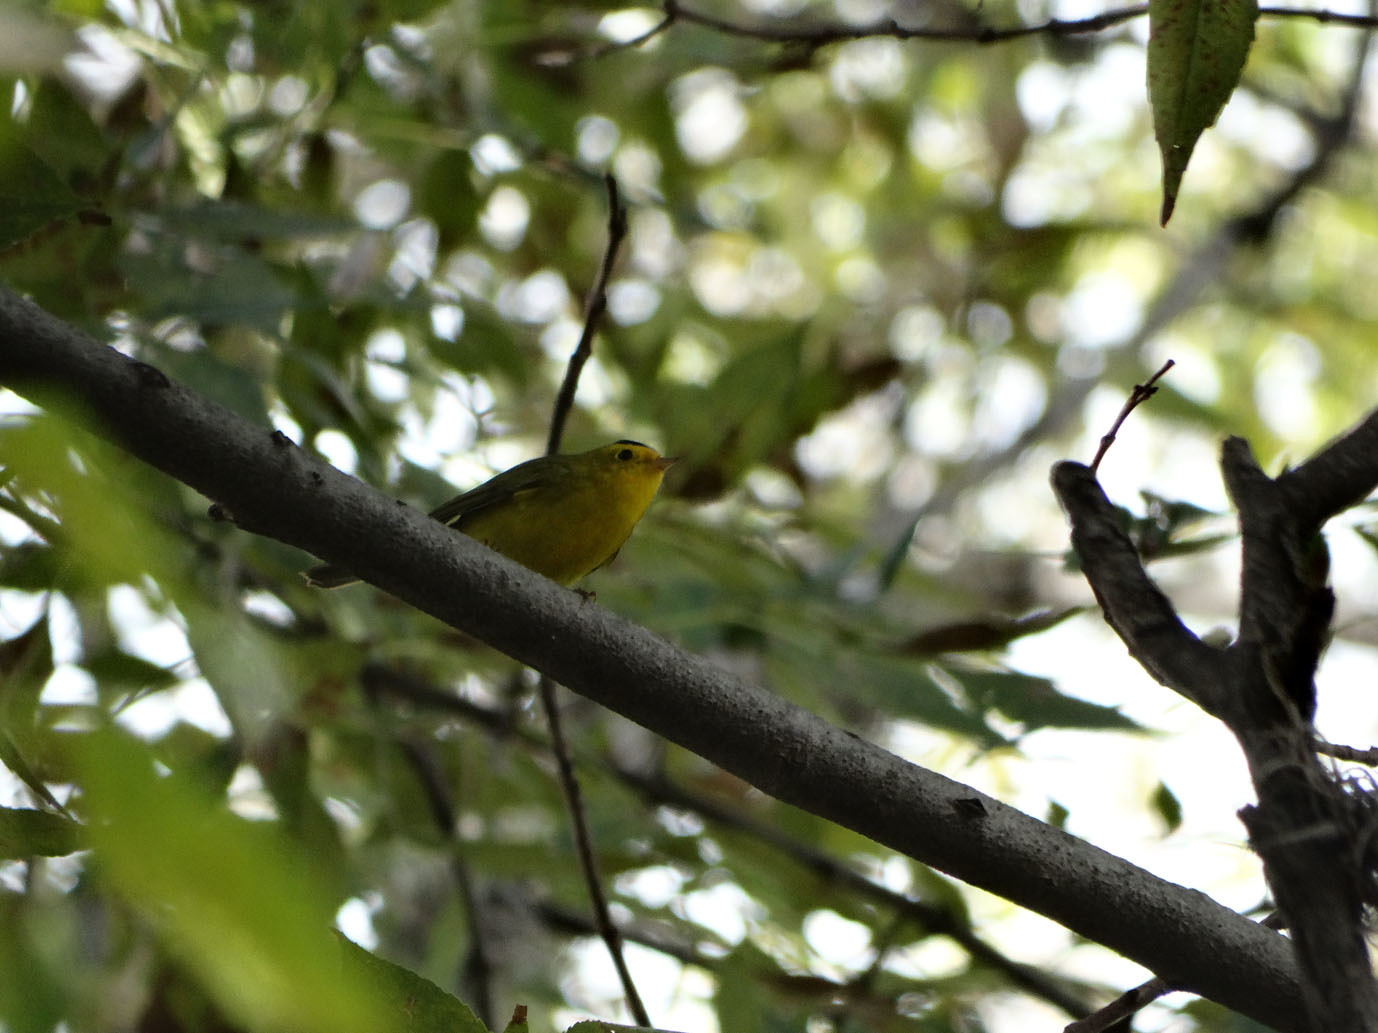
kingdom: Animalia
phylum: Chordata
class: Aves
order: Passeriformes
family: Parulidae
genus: Cardellina
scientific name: Cardellina pusilla
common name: Wilson's warbler
